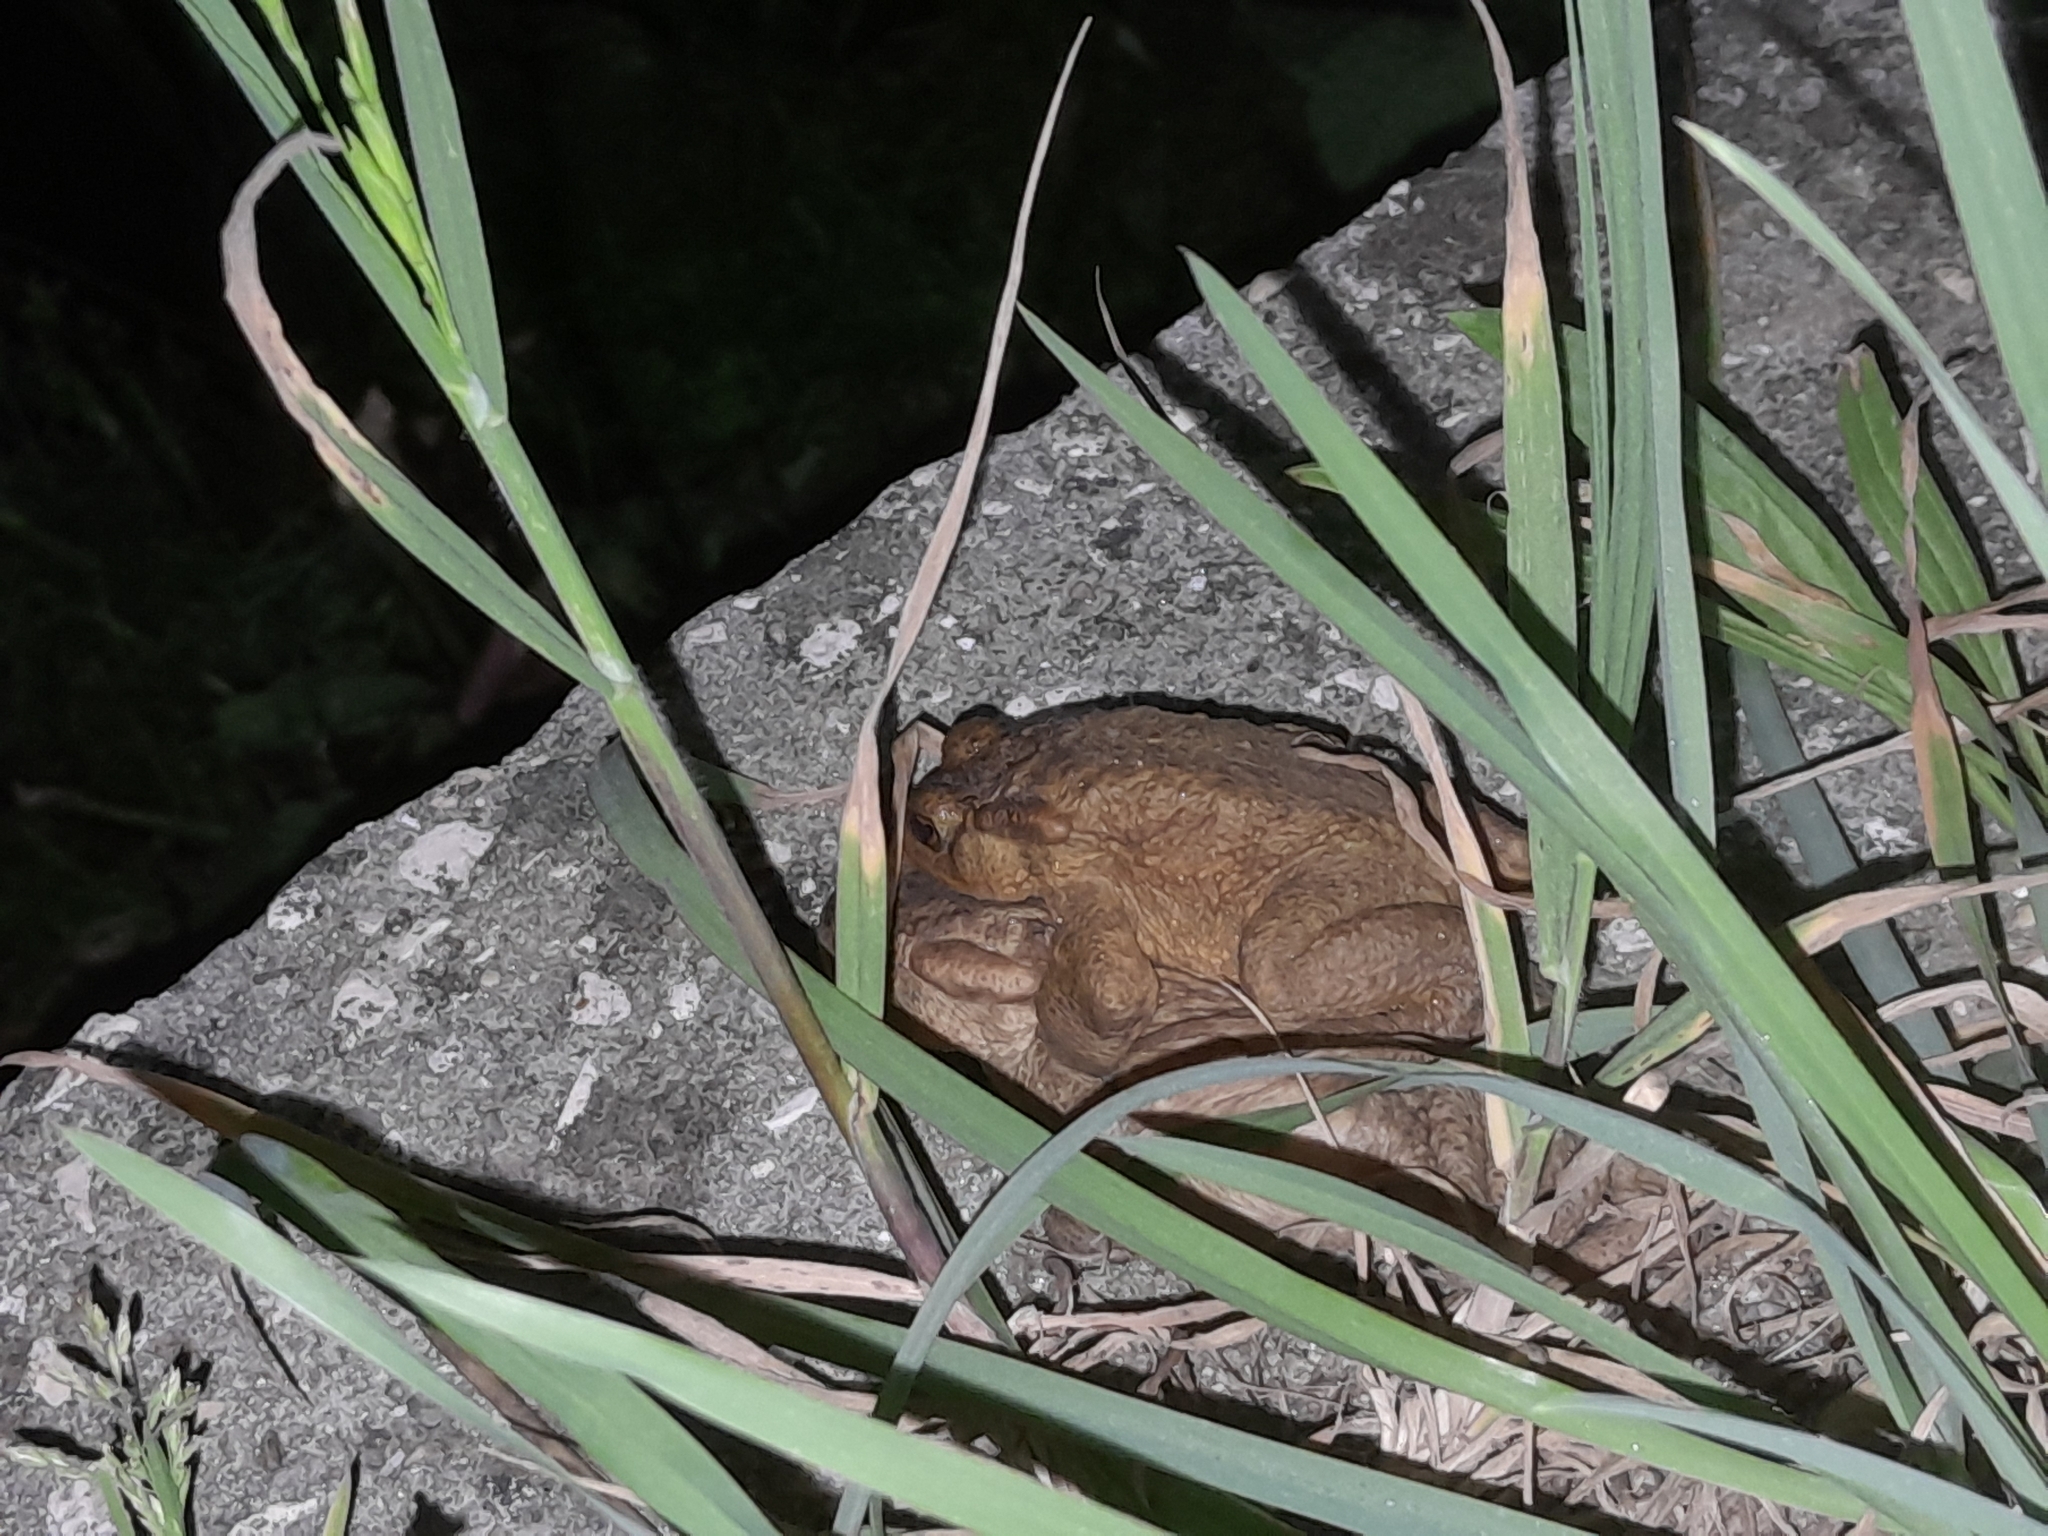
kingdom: Animalia
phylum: Chordata
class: Amphibia
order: Anura
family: Bufonidae
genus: Bufo
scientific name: Bufo spinosus
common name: Western common toad
